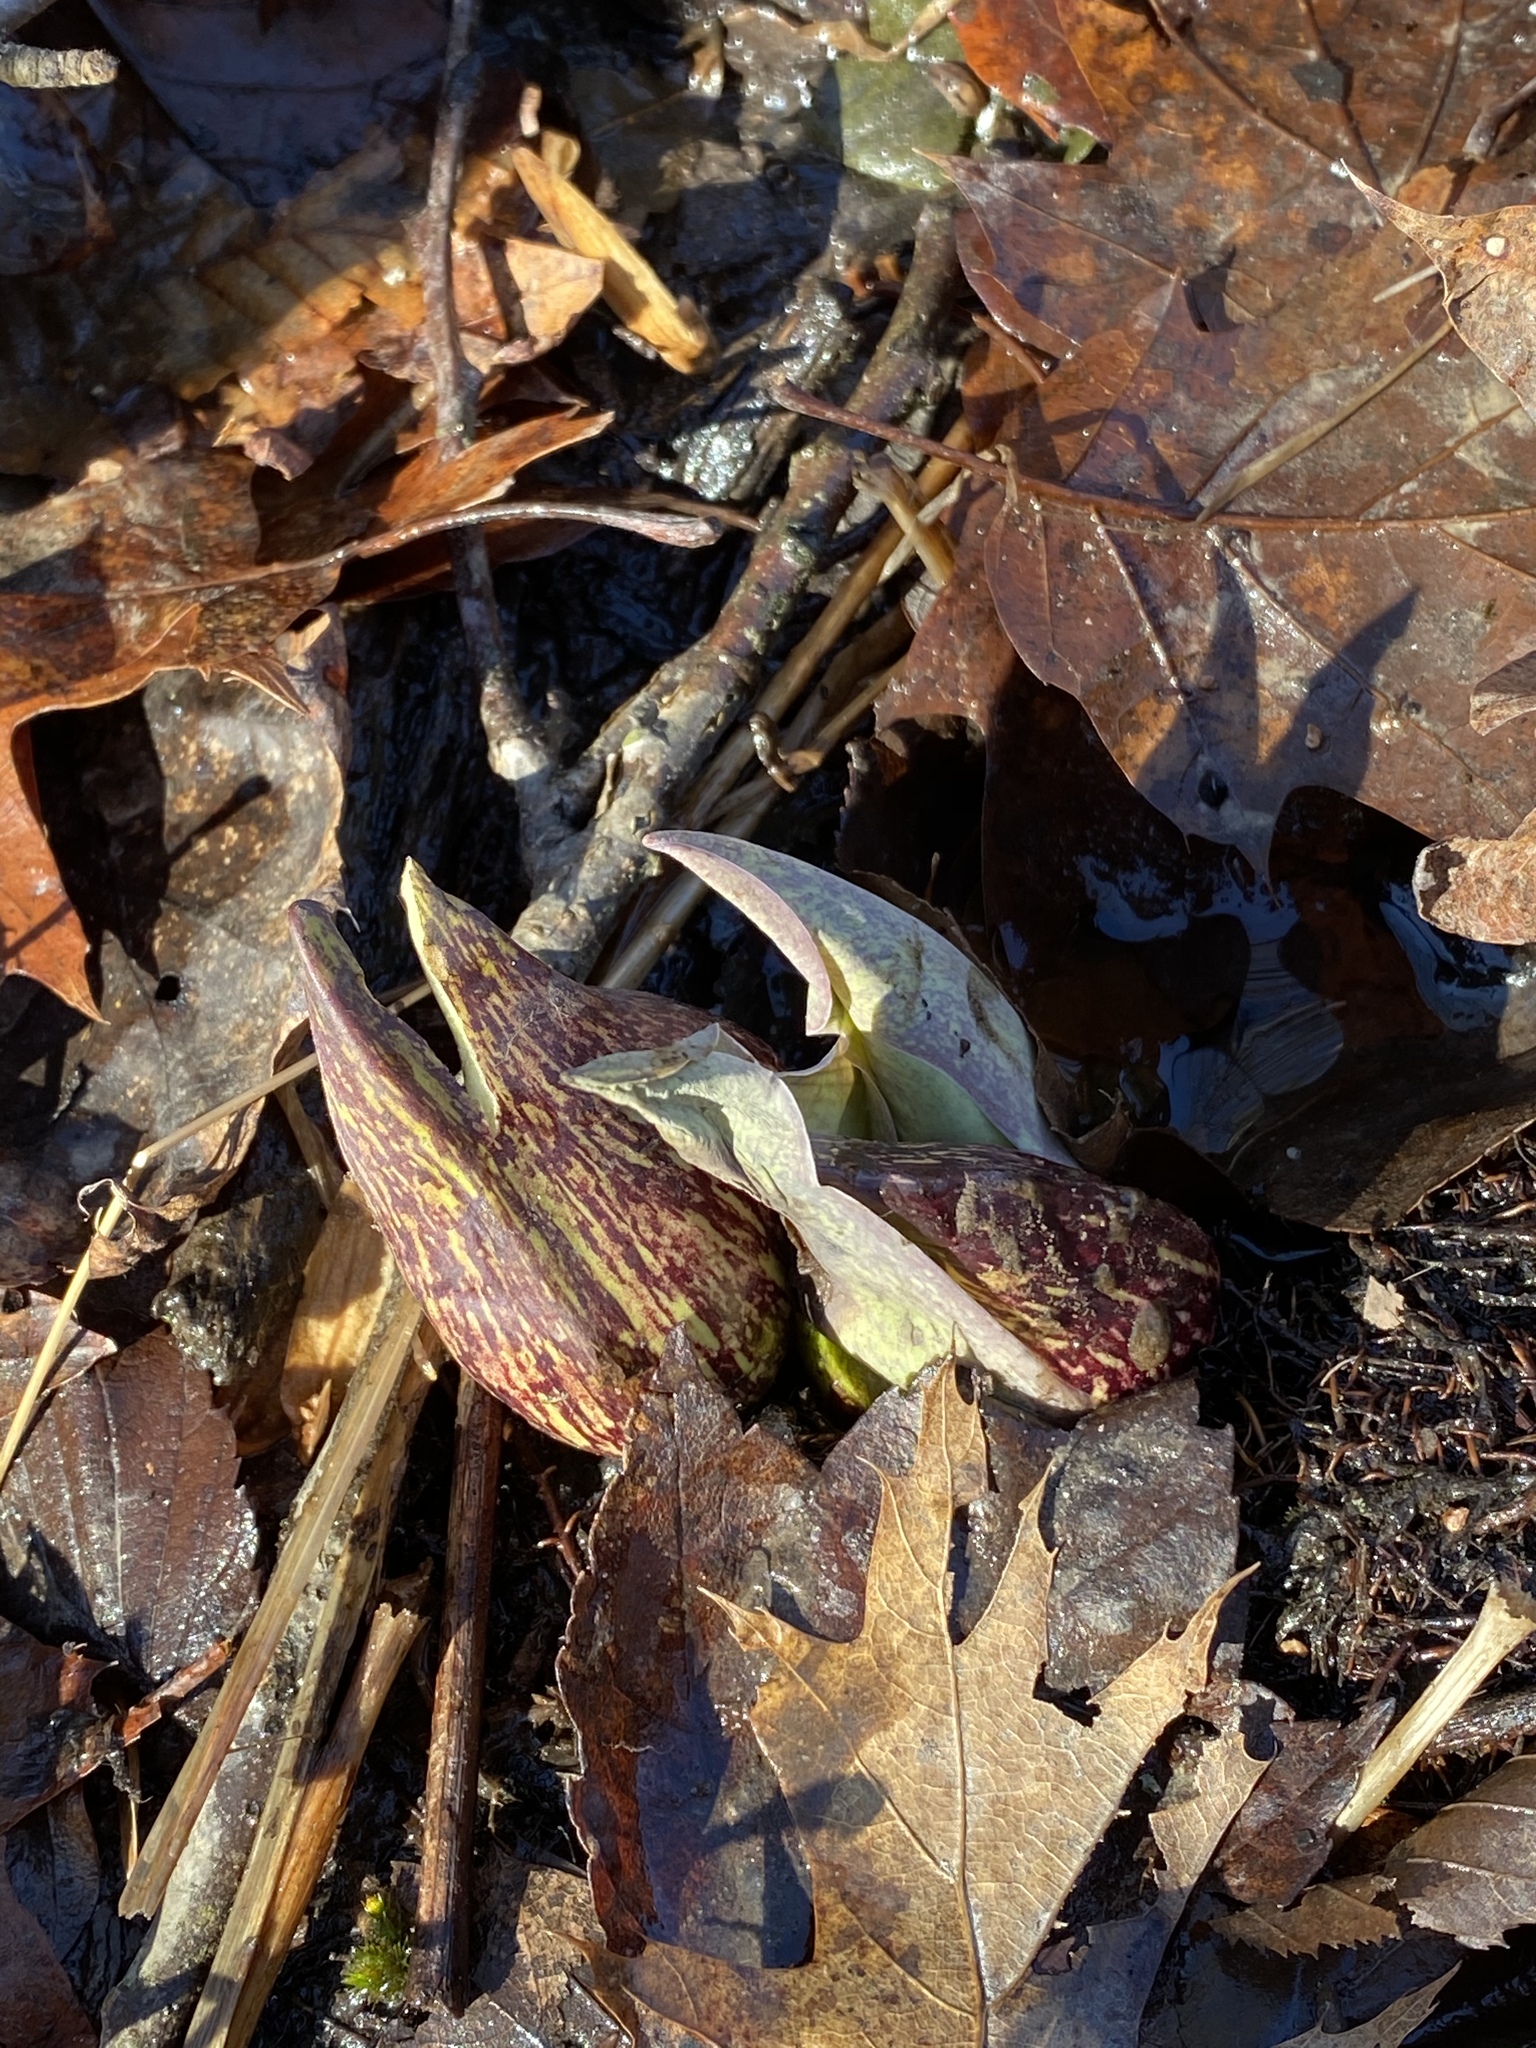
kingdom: Plantae
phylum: Tracheophyta
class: Liliopsida
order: Alismatales
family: Araceae
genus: Symplocarpus
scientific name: Symplocarpus foetidus
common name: Eastern skunk cabbage
